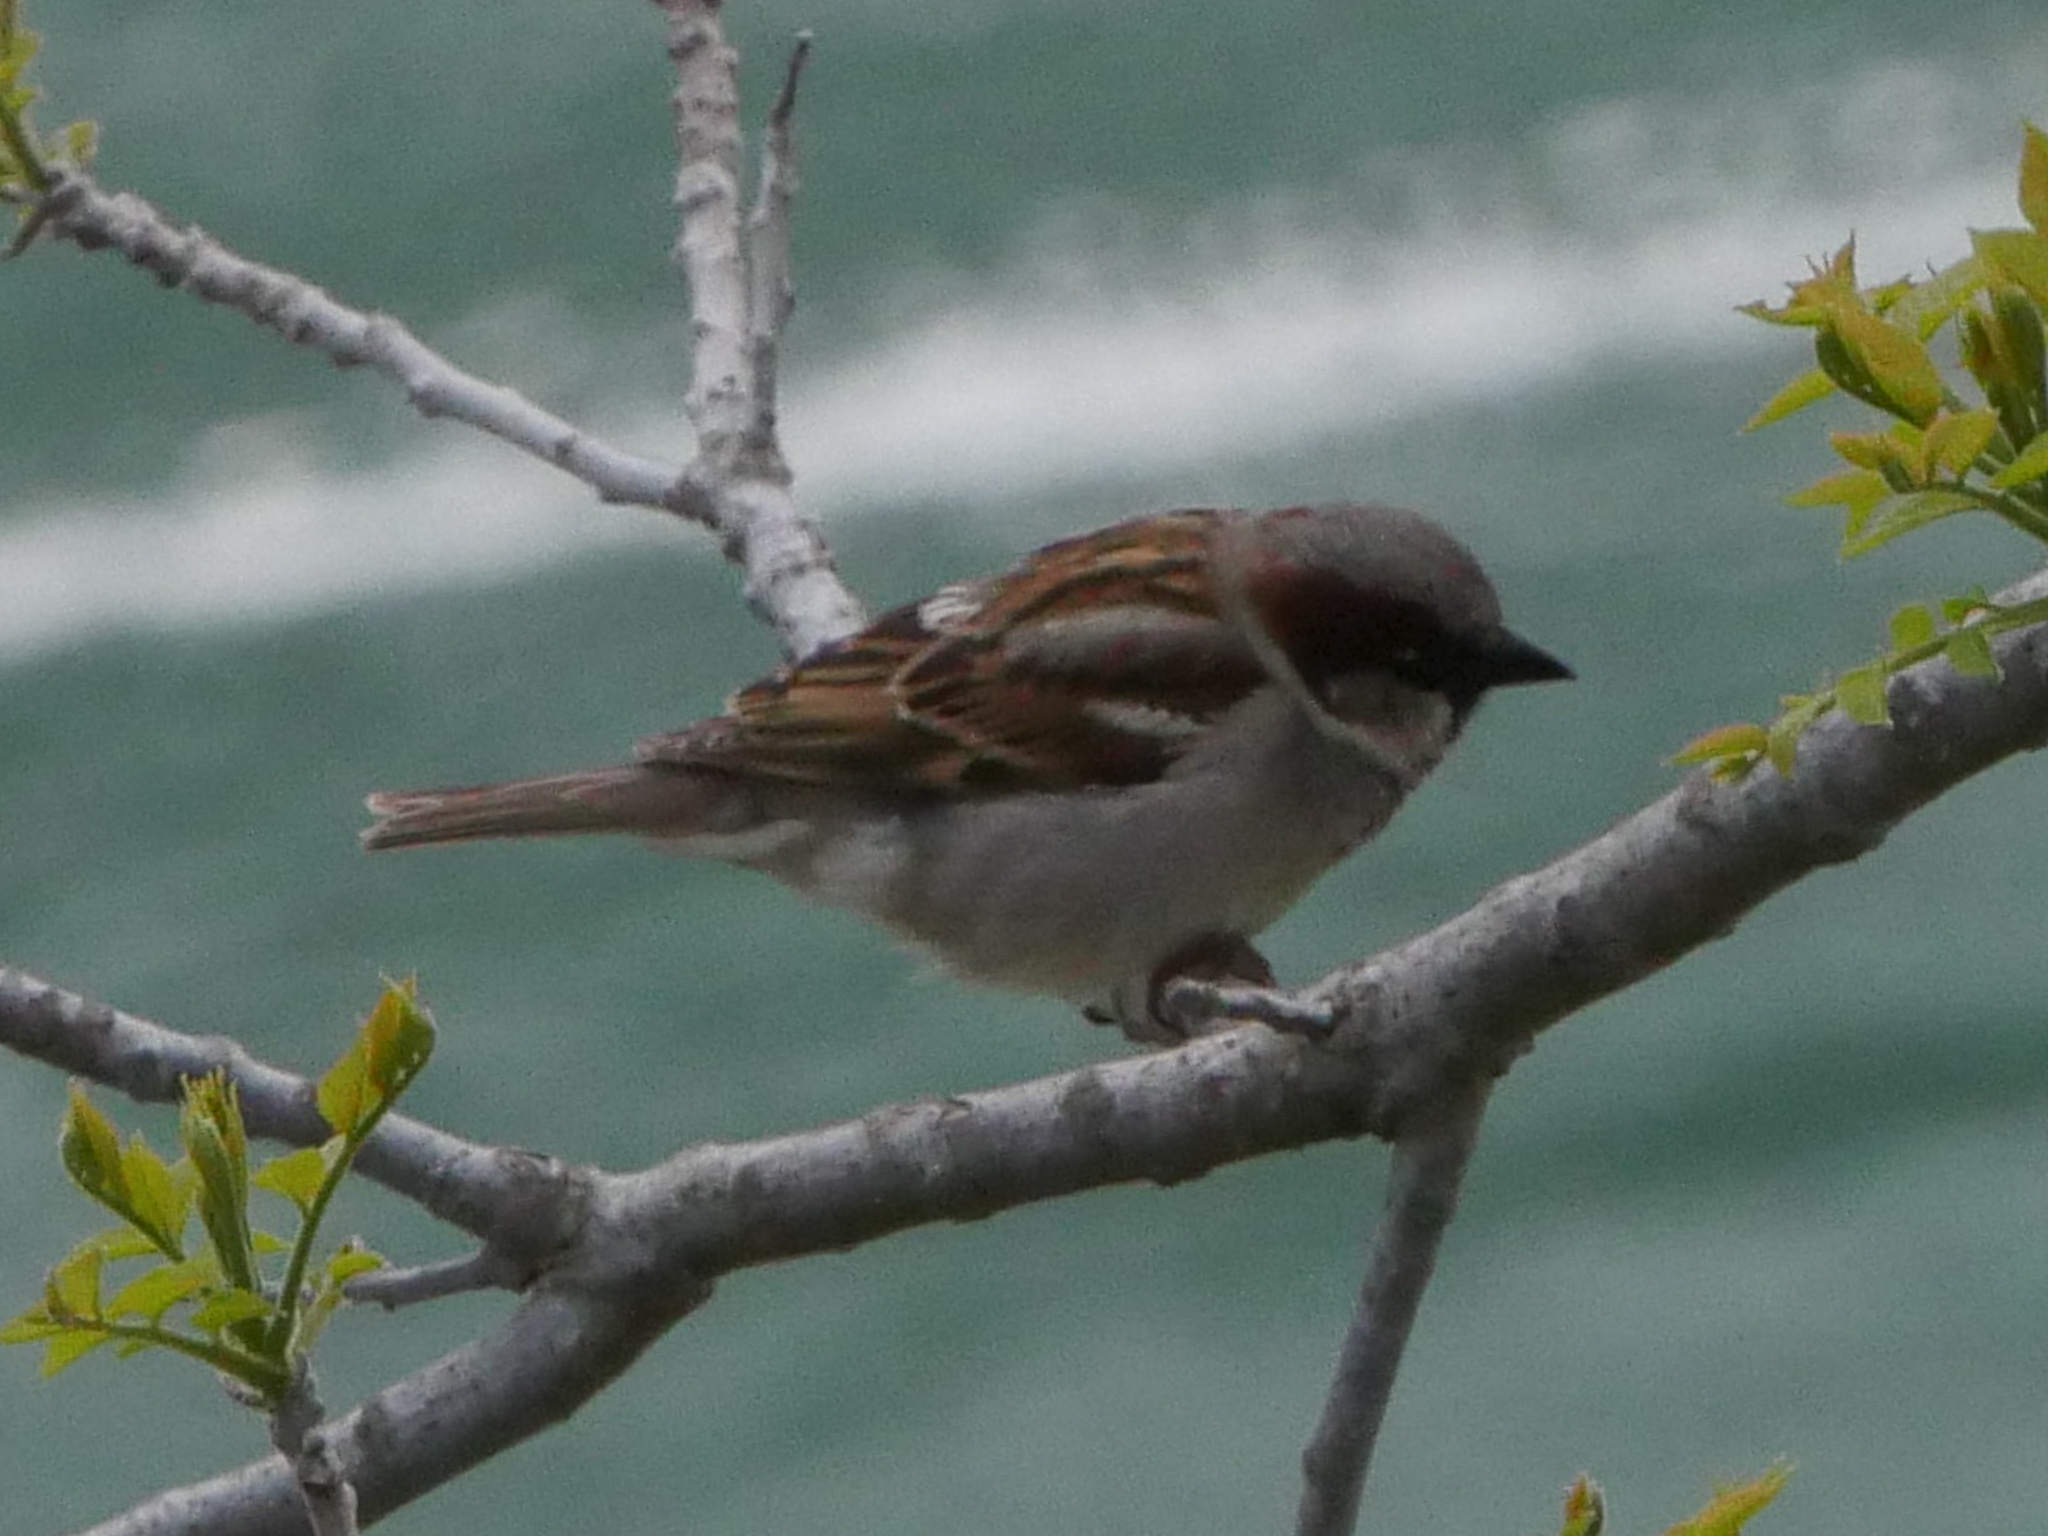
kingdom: Animalia
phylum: Chordata
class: Aves
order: Passeriformes
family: Passeridae
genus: Passer
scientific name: Passer domesticus
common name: House sparrow
